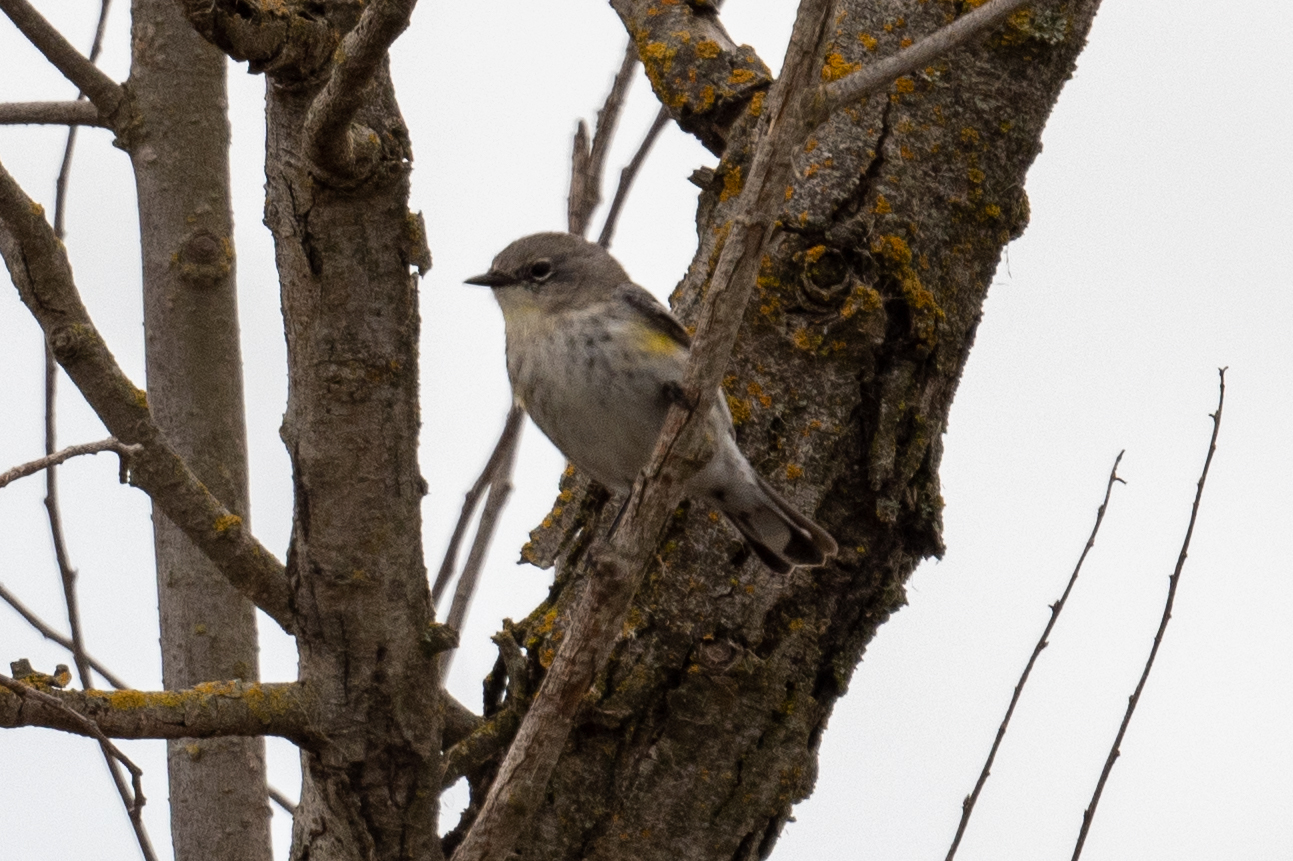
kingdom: Animalia
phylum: Chordata
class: Aves
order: Passeriformes
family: Parulidae
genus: Setophaga
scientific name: Setophaga coronata
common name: Myrtle warbler
